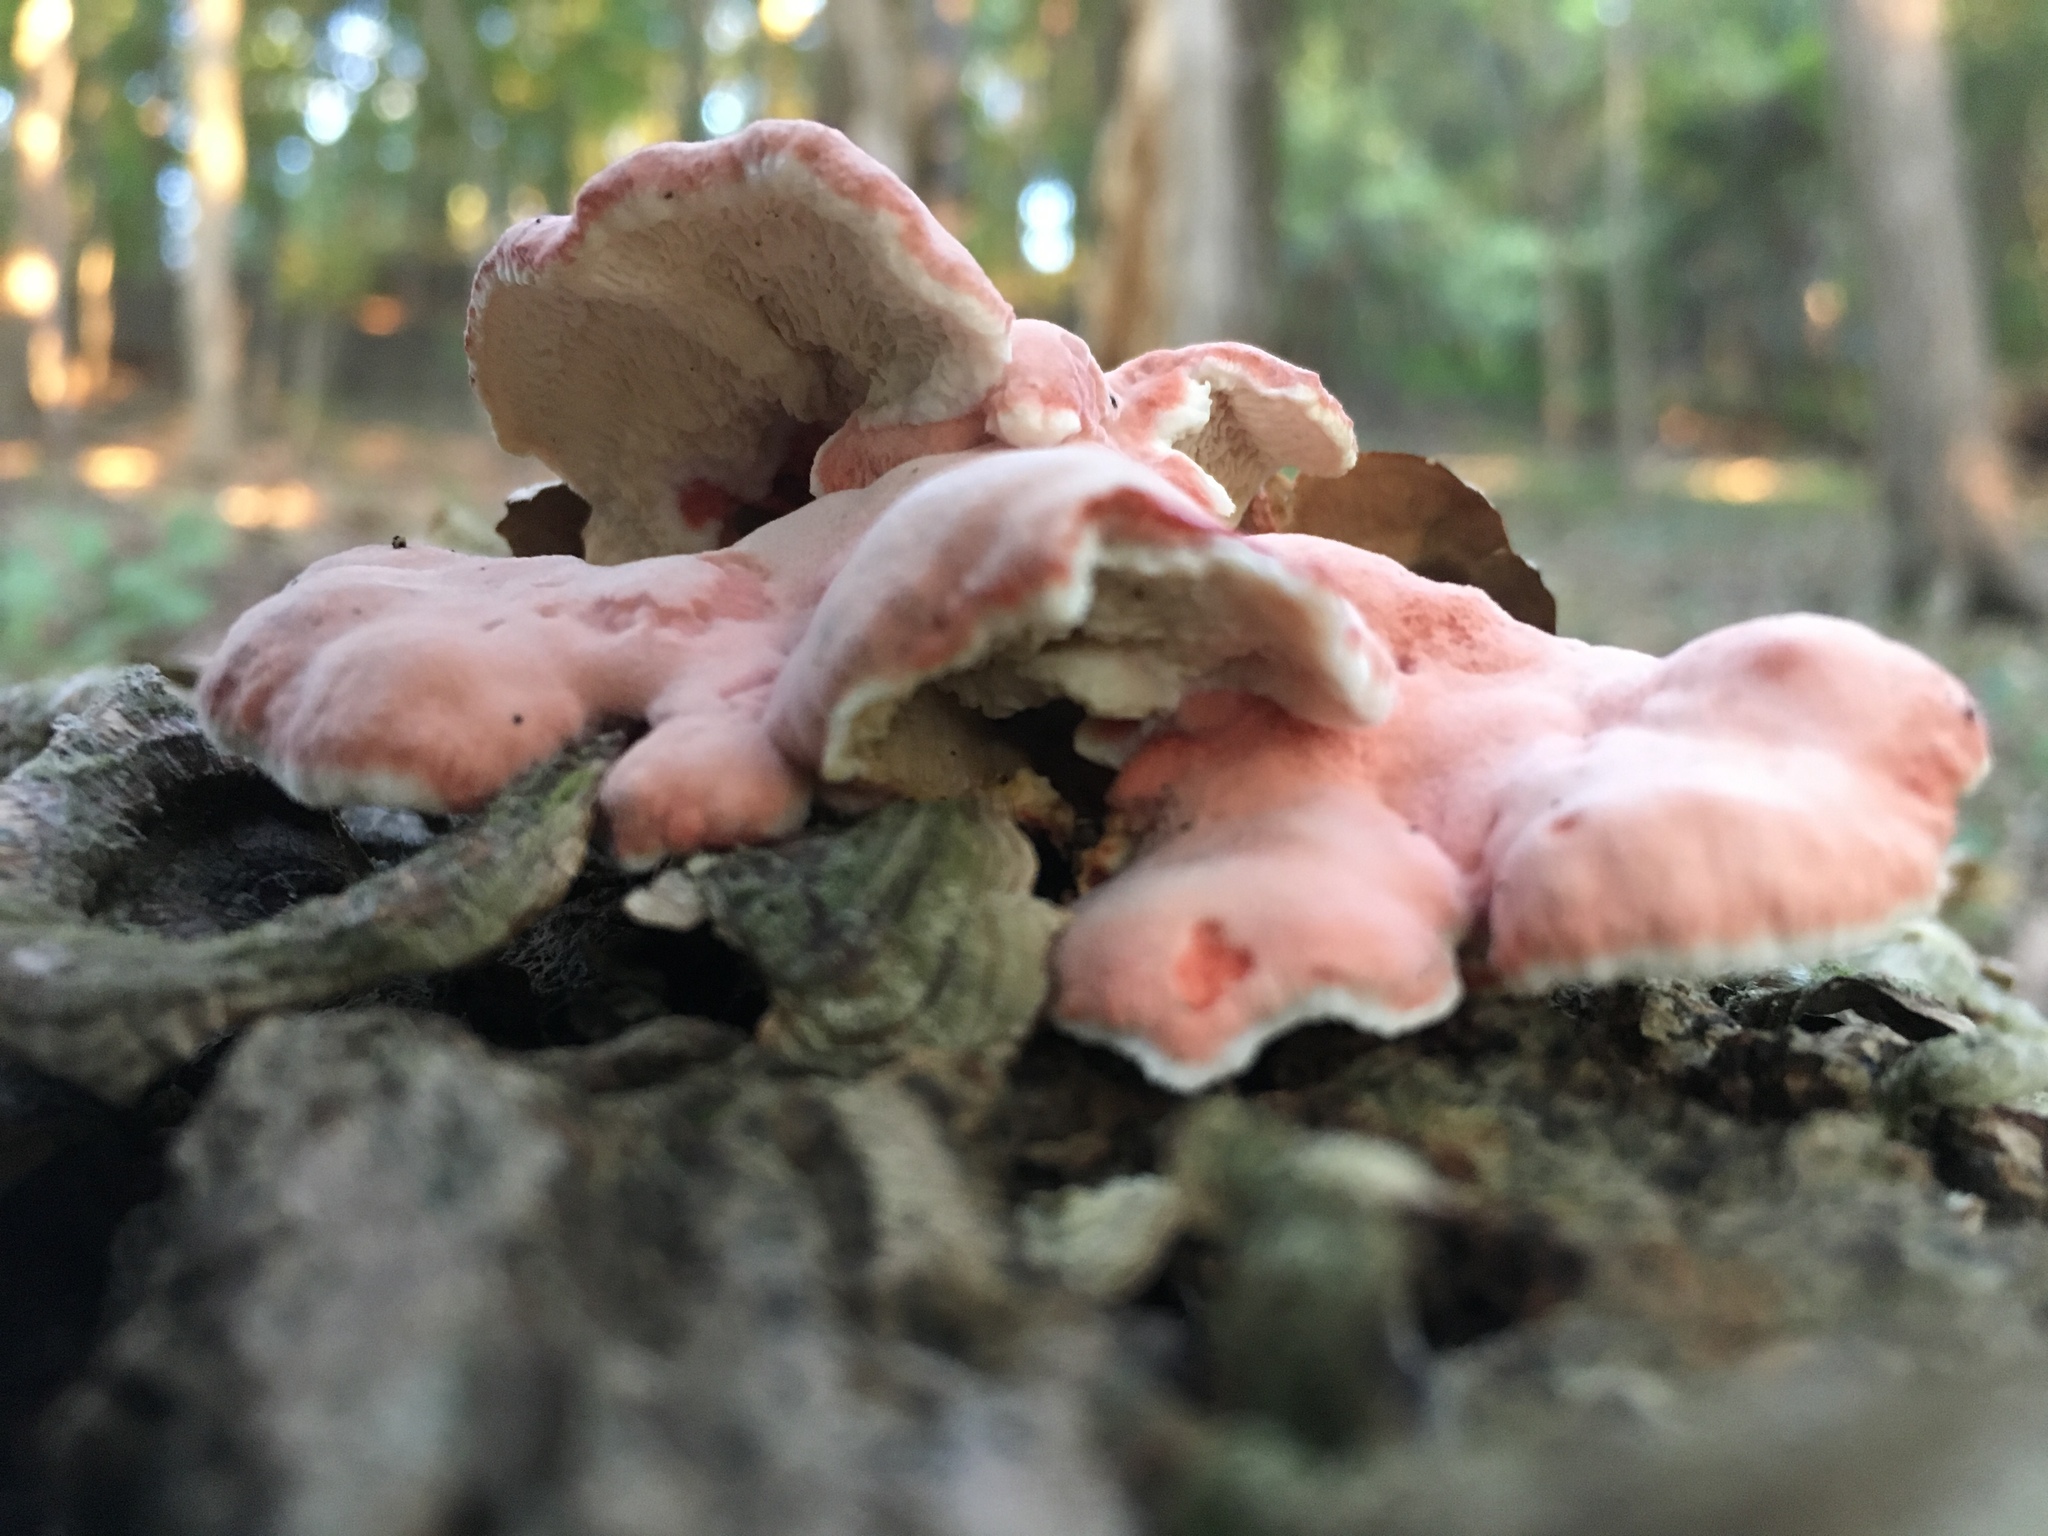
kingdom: Fungi
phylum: Basidiomycota
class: Agaricomycetes
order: Polyporales
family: Irpicaceae
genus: Byssomerulius
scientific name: Byssomerulius incarnatus
